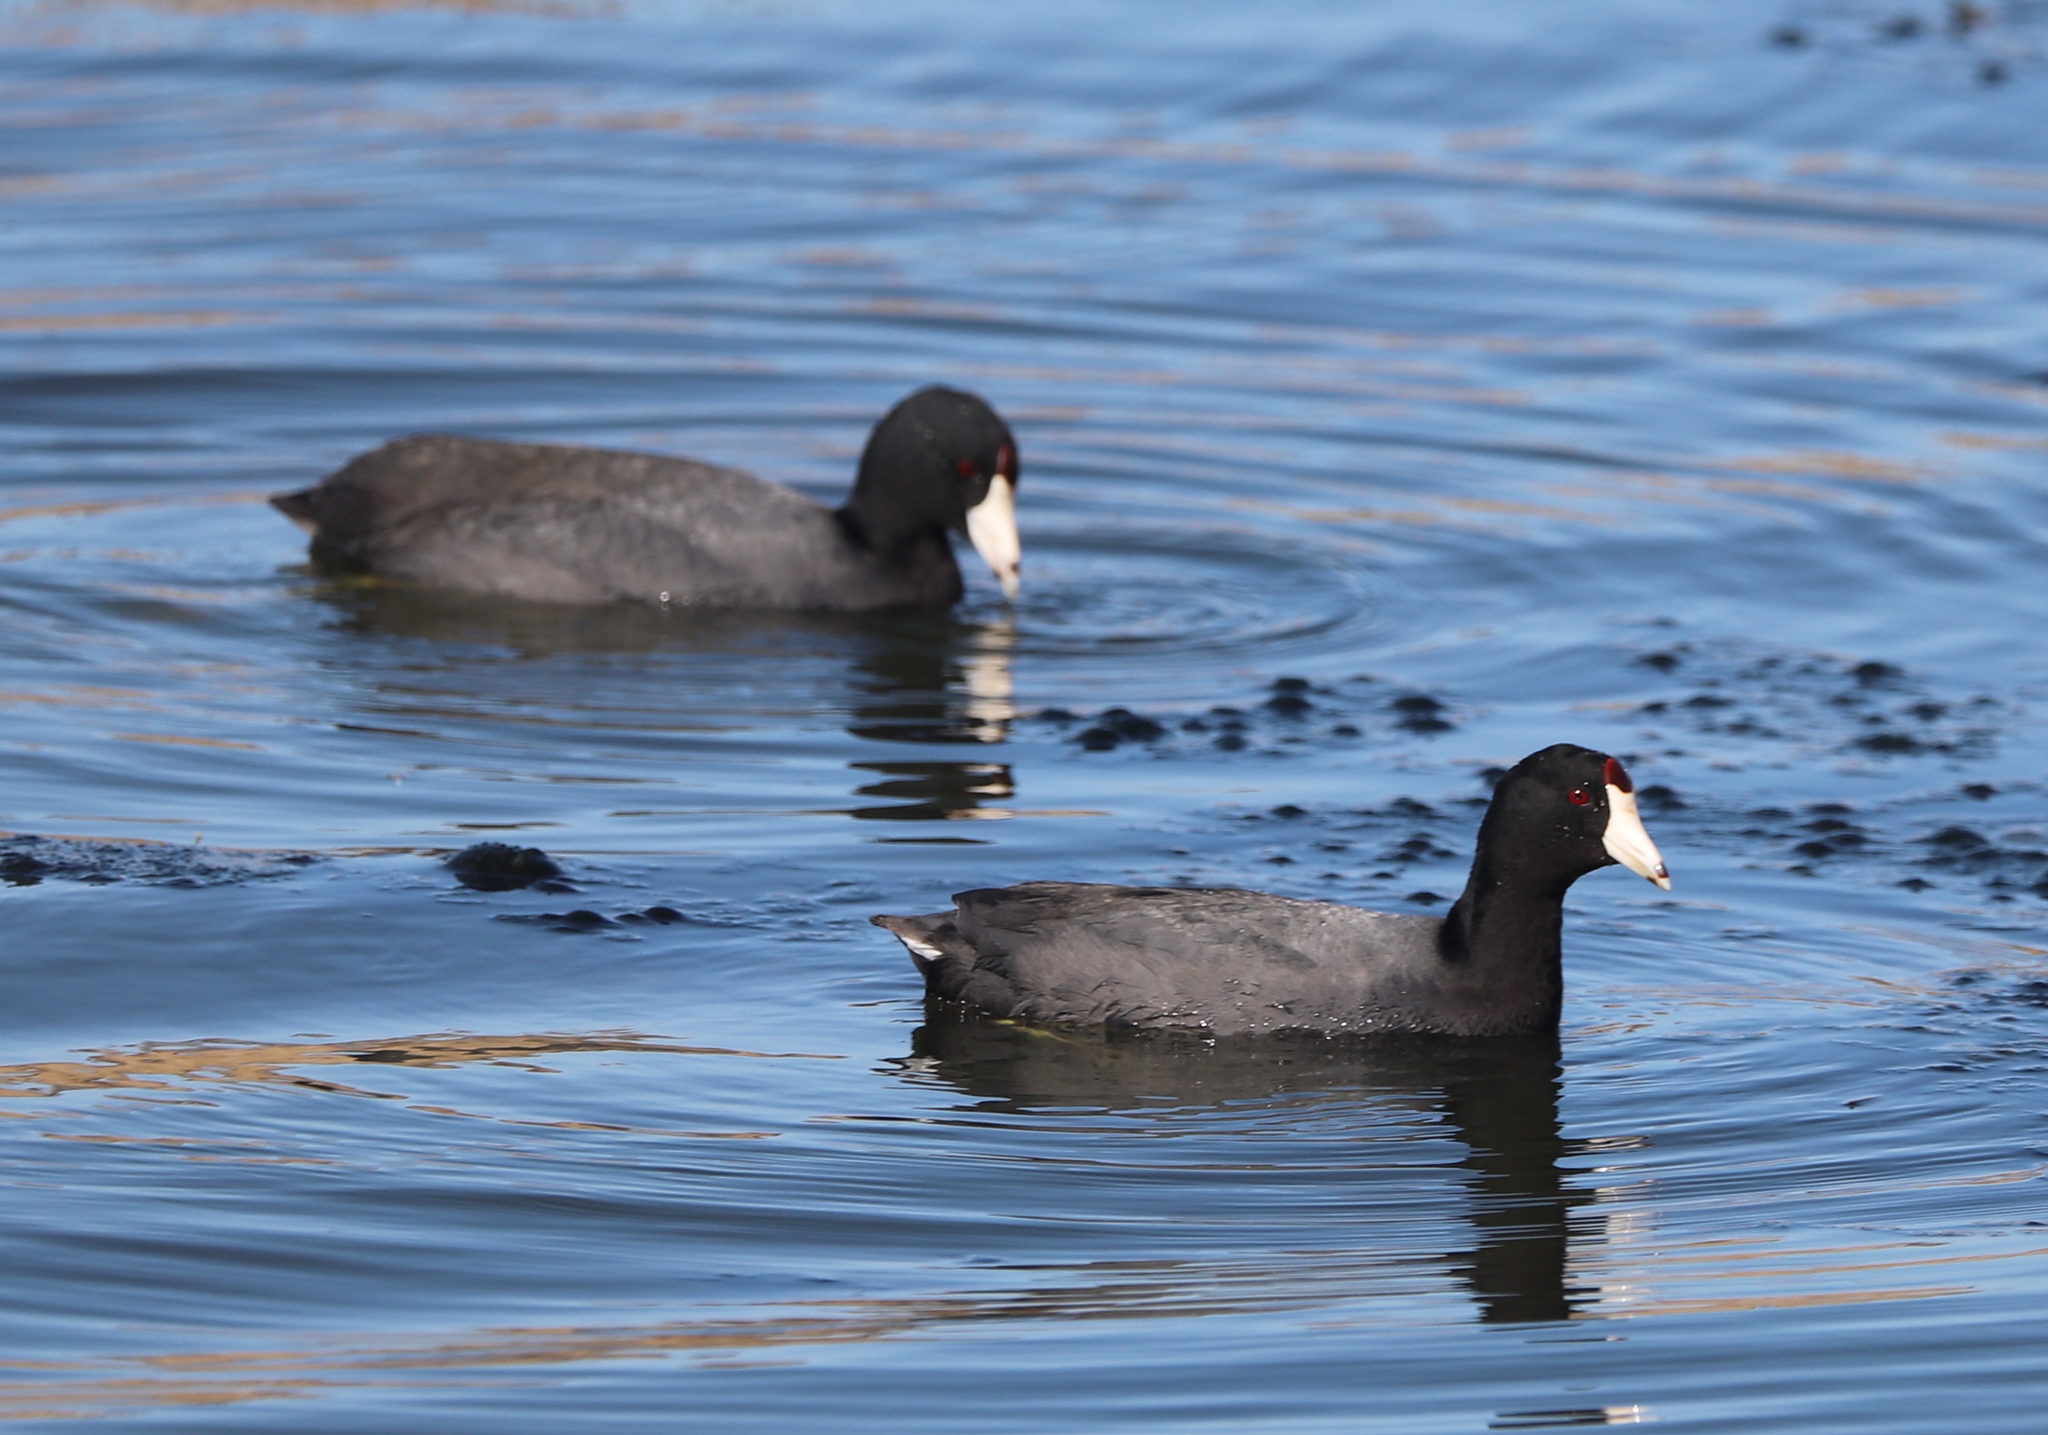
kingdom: Animalia
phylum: Chordata
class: Aves
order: Gruiformes
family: Rallidae
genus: Fulica
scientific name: Fulica americana
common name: American coot
